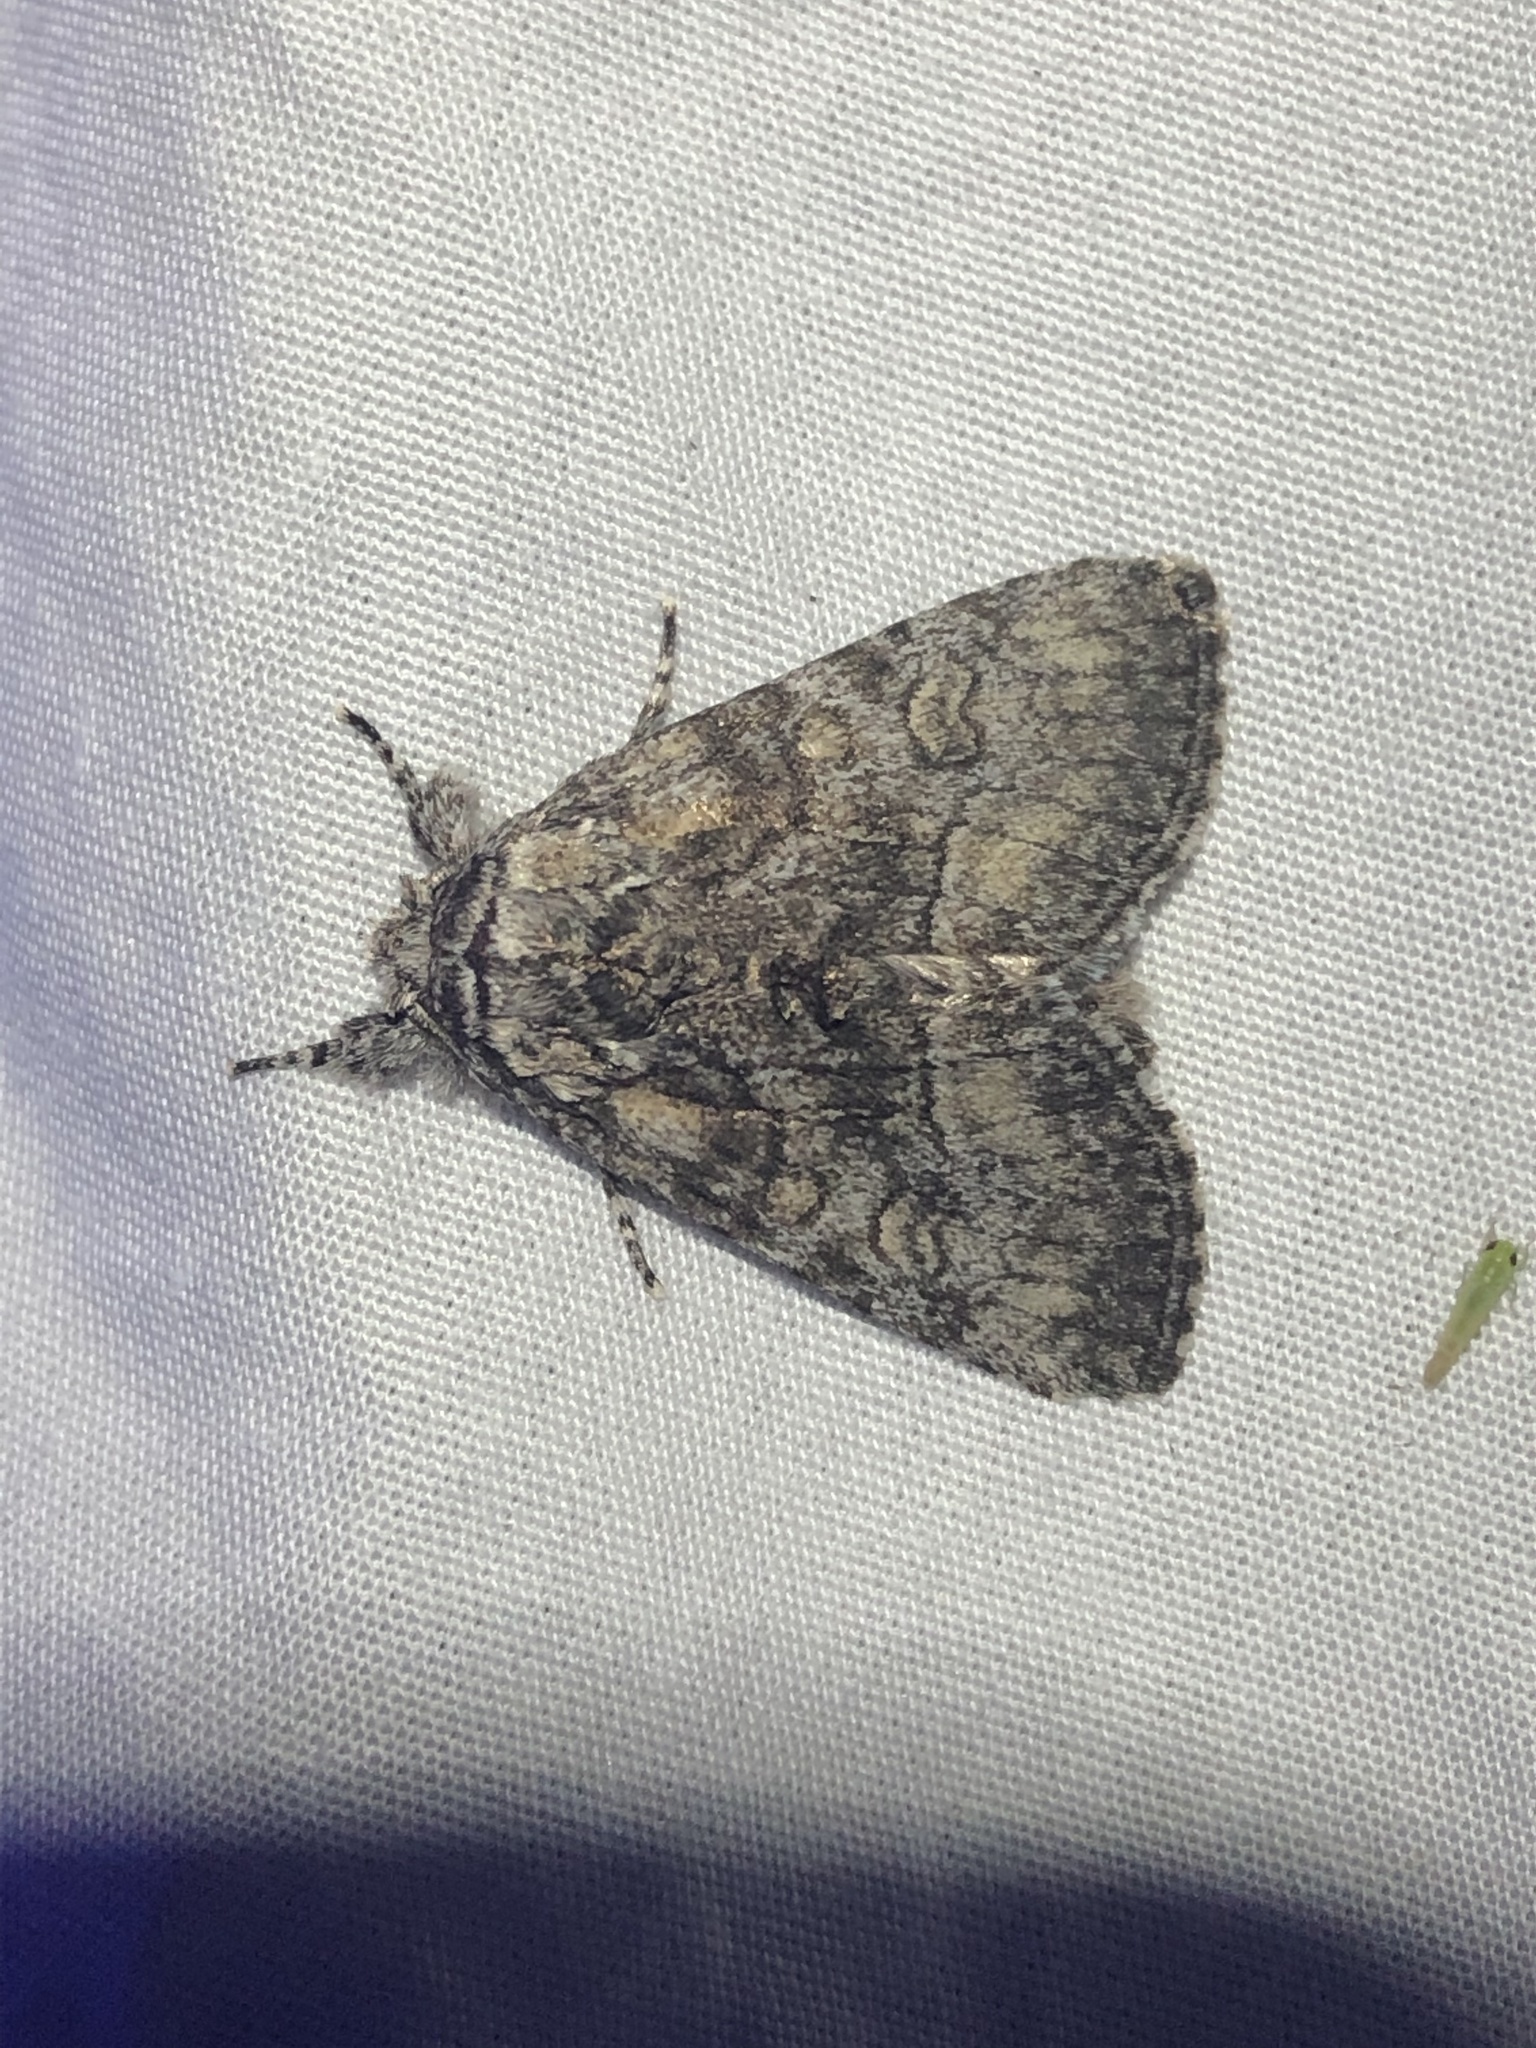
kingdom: Animalia
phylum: Arthropoda
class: Insecta
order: Lepidoptera
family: Noctuidae
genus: Raphia
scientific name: Raphia frater
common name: Brother
